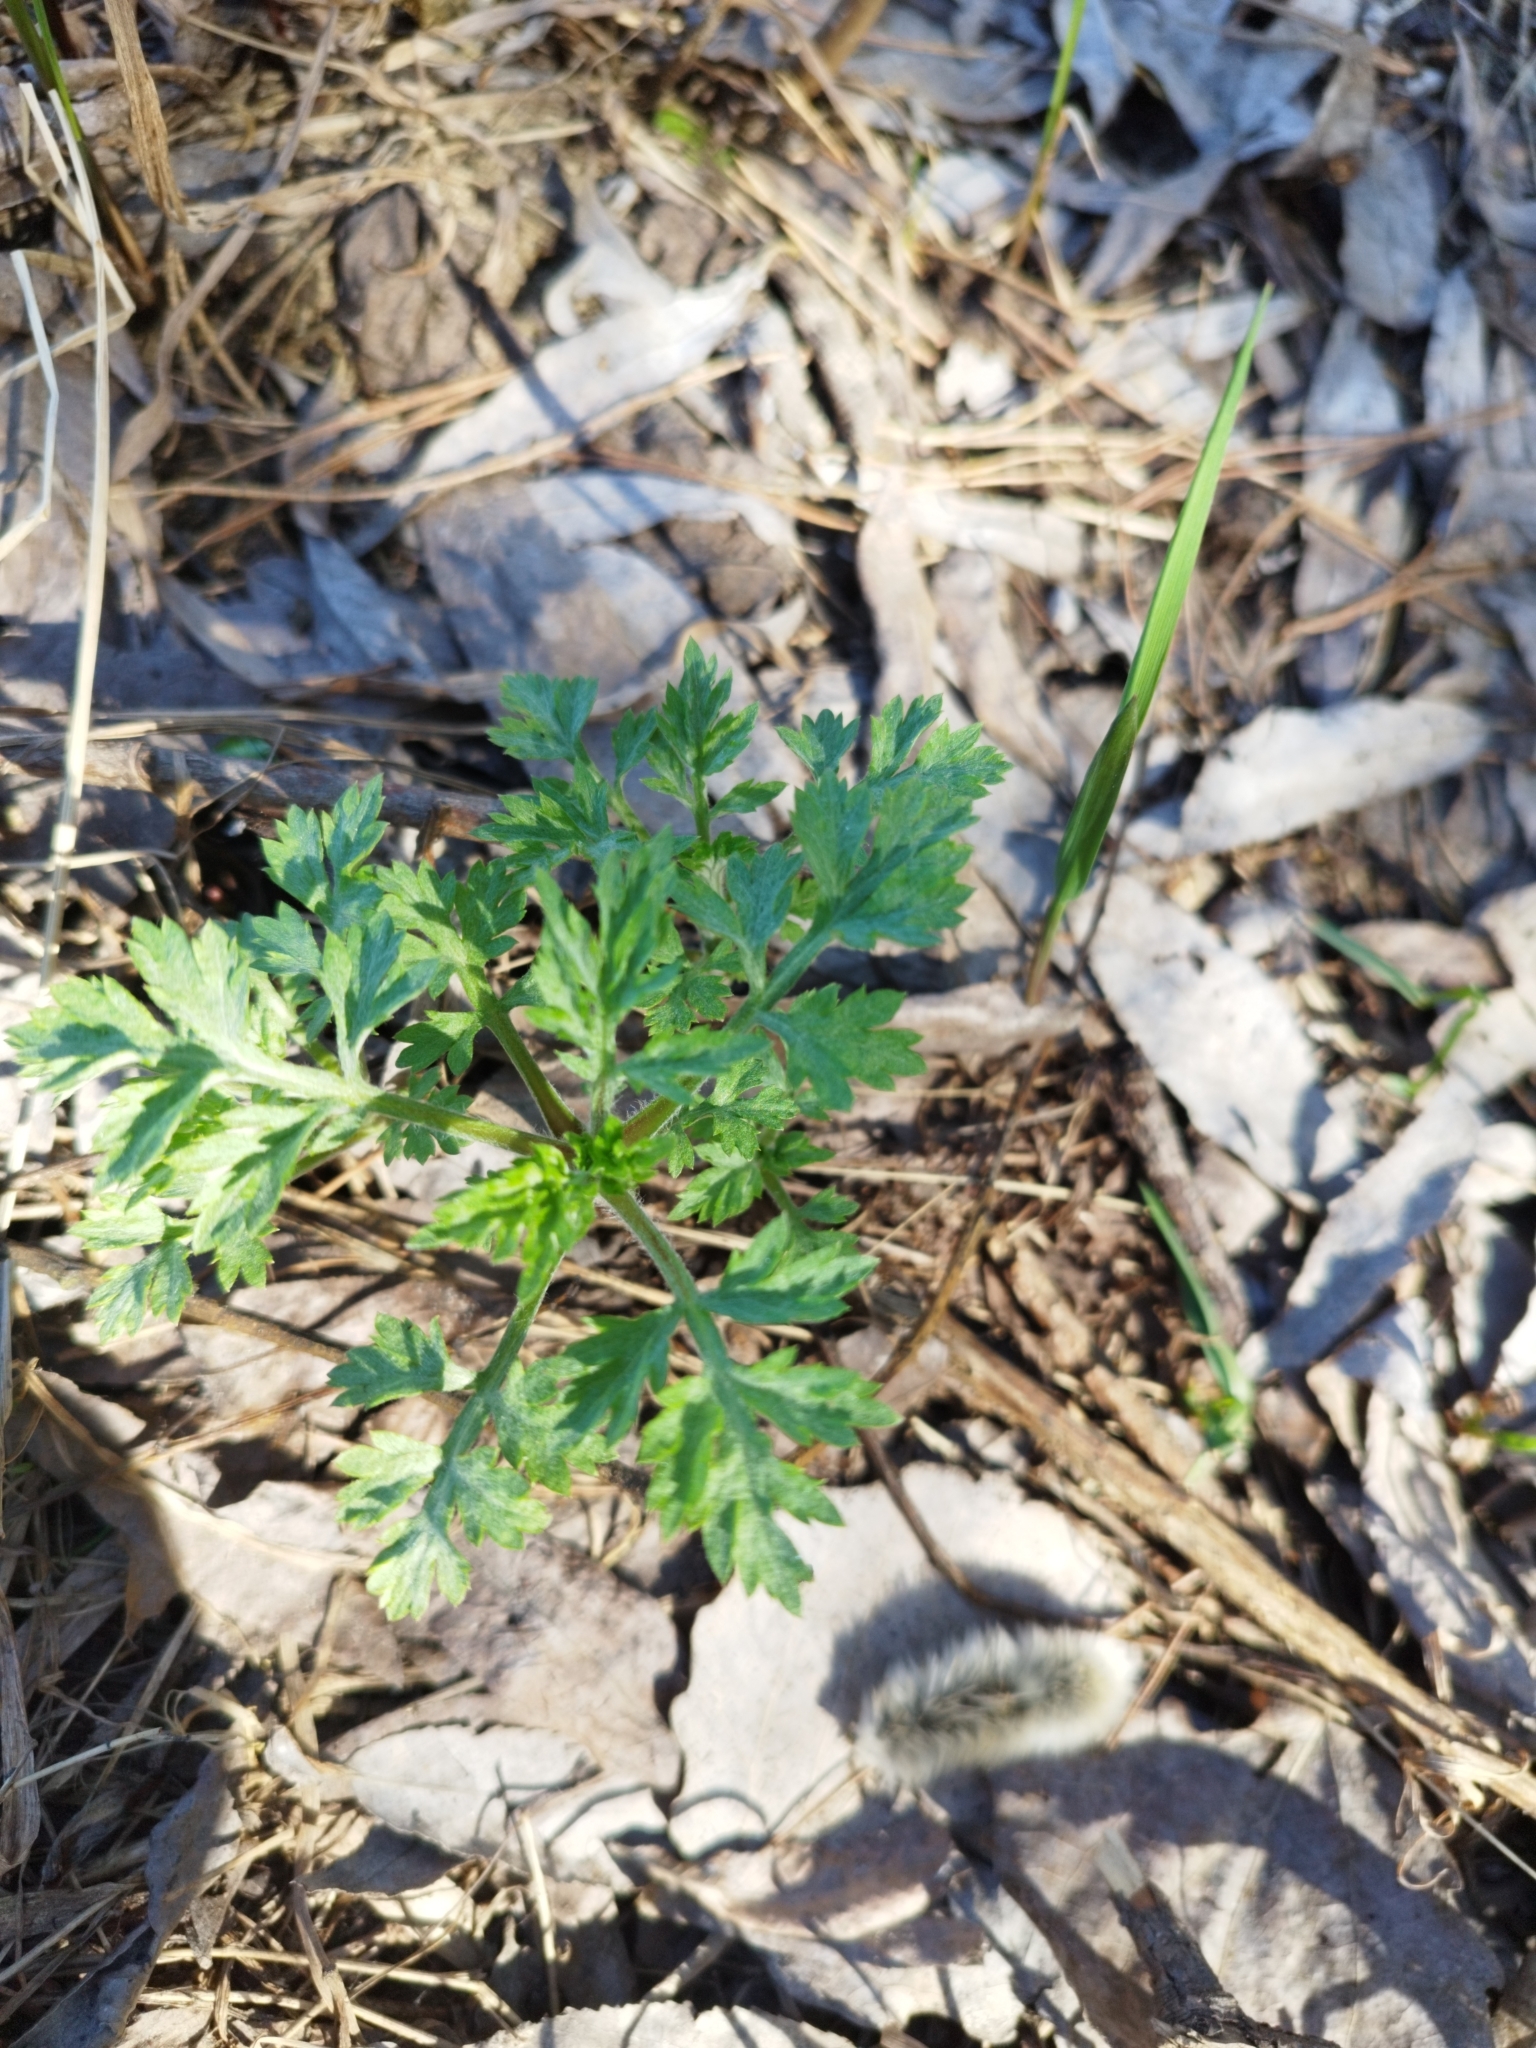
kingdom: Plantae
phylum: Tracheophyta
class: Magnoliopsida
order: Asterales
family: Asteraceae
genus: Artemisia
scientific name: Artemisia vulgaris
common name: Mugwort
